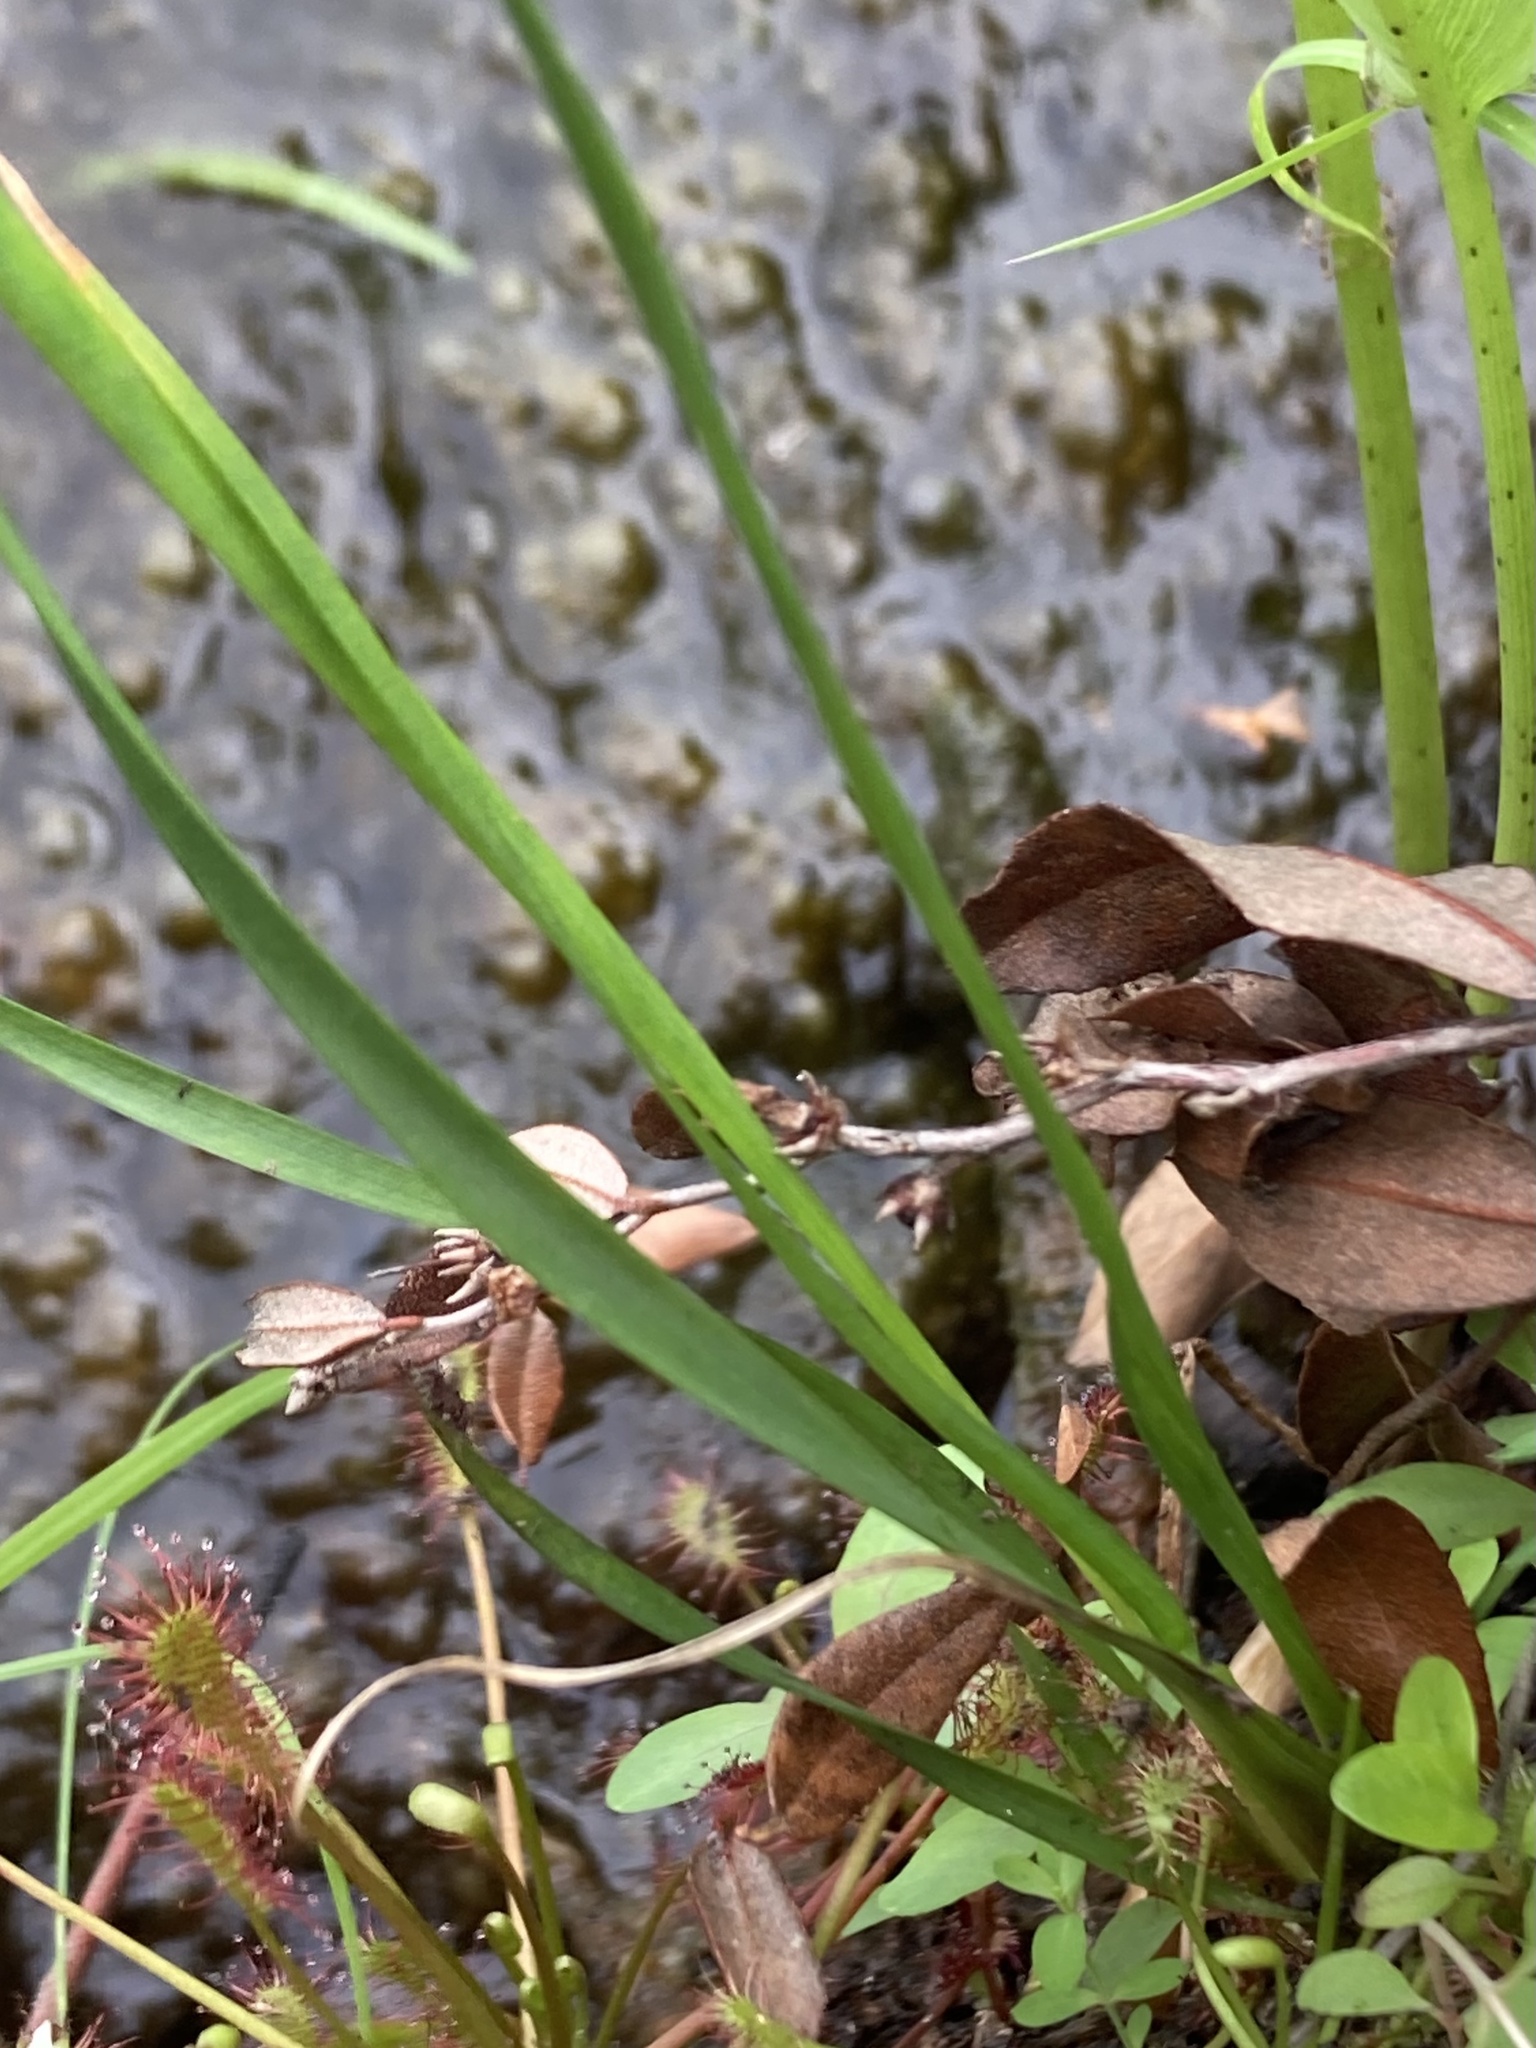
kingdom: Plantae
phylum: Tracheophyta
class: Liliopsida
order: Poales
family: Xyridaceae
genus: Xyris
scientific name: Xyris torta
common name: Common yelloweyed grass
